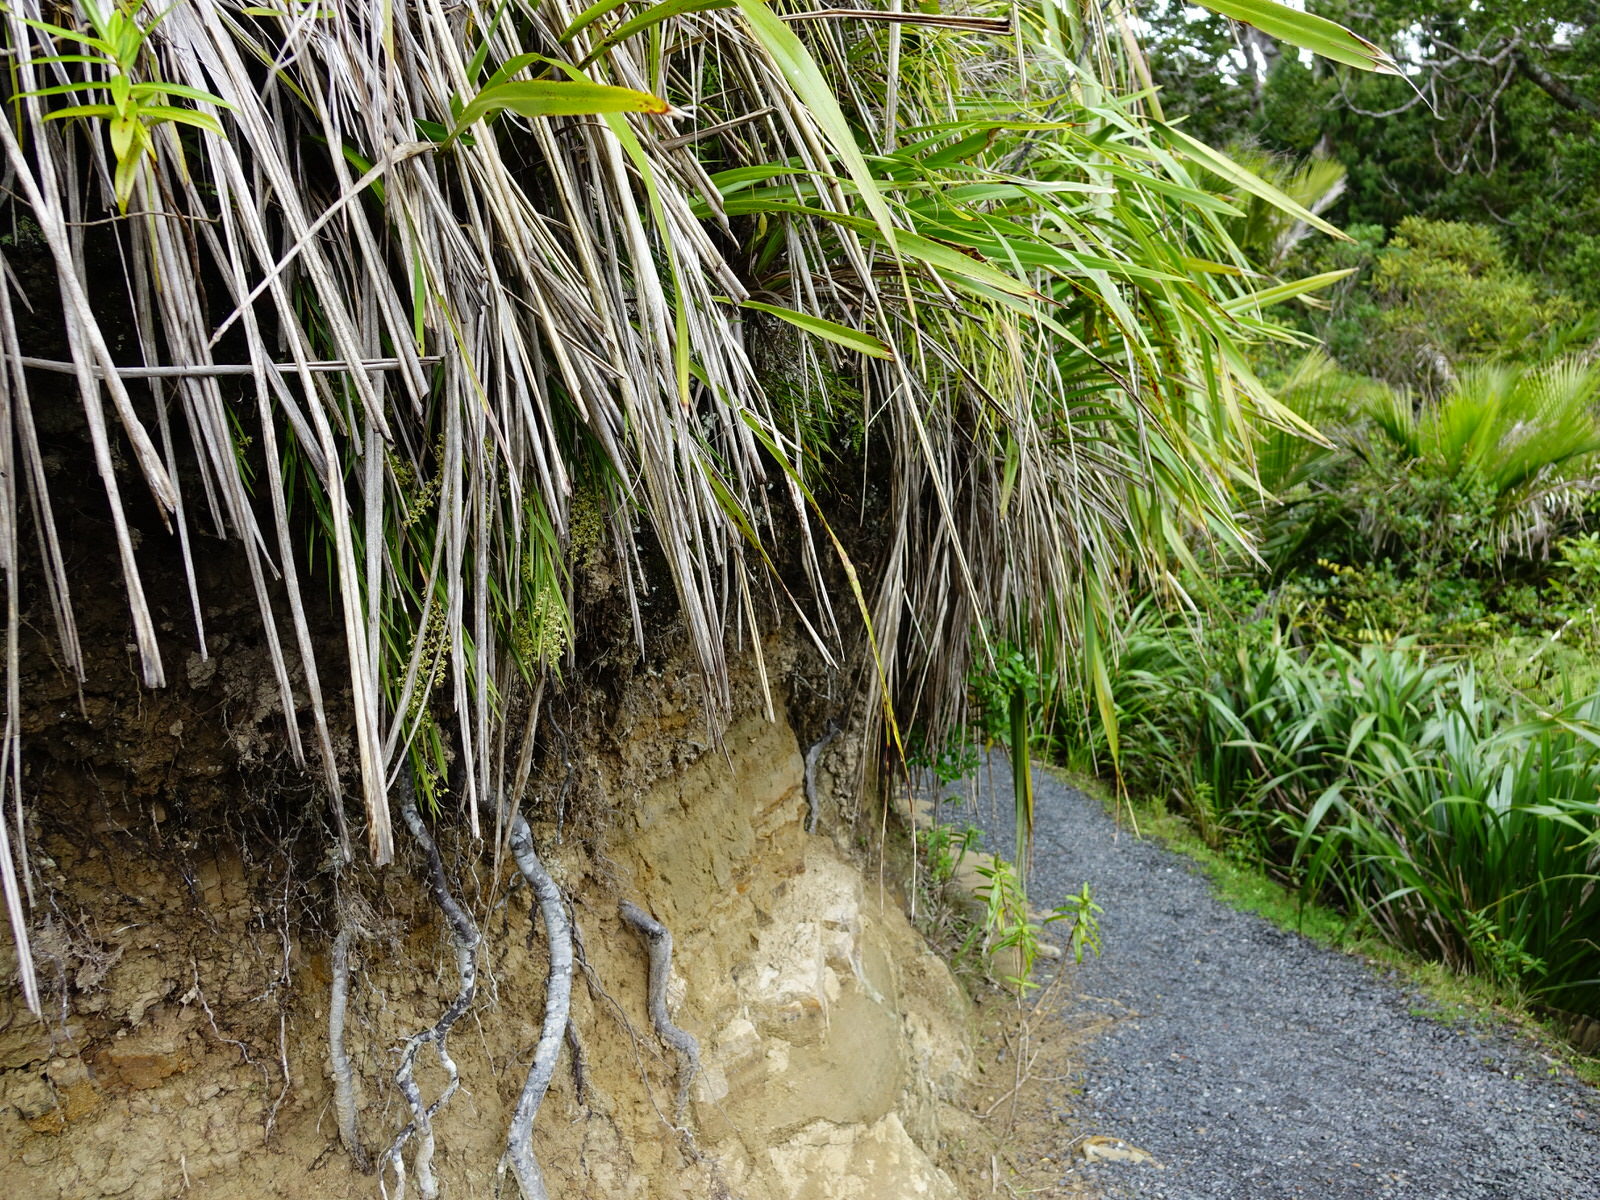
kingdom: Plantae
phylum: Tracheophyta
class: Liliopsida
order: Asparagales
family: Orchidaceae
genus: Earina
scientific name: Earina mucronata
